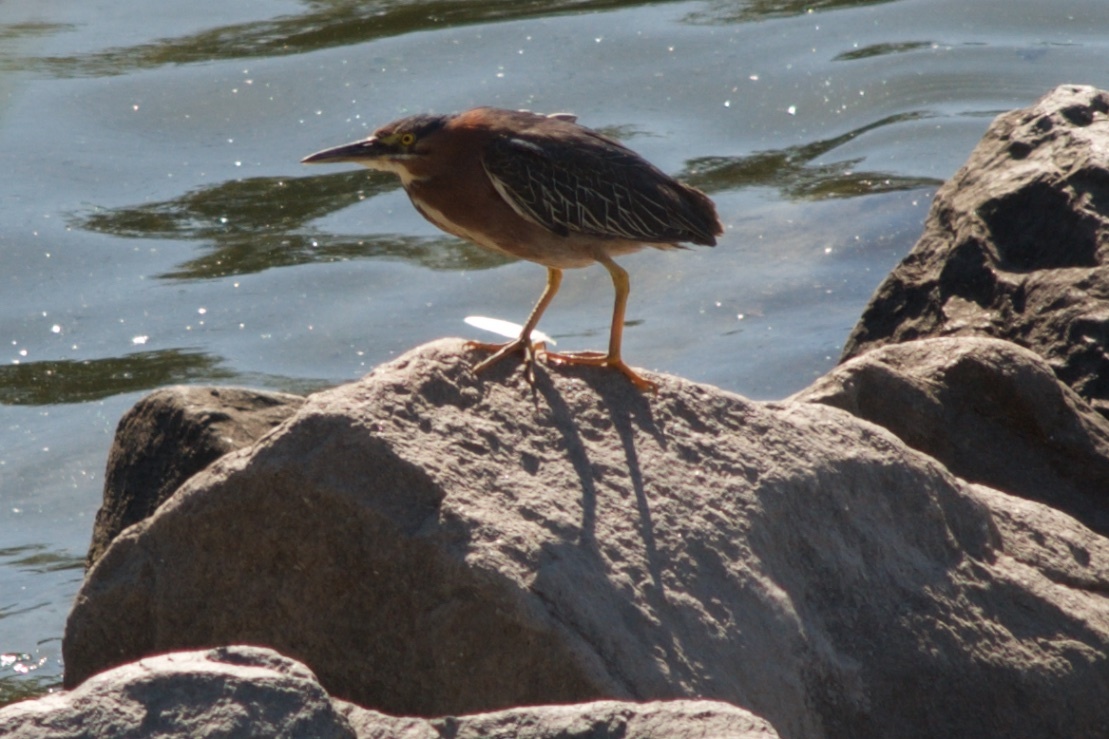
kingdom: Animalia
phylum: Chordata
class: Aves
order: Pelecaniformes
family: Ardeidae
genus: Butorides
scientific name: Butorides virescens
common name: Green heron
